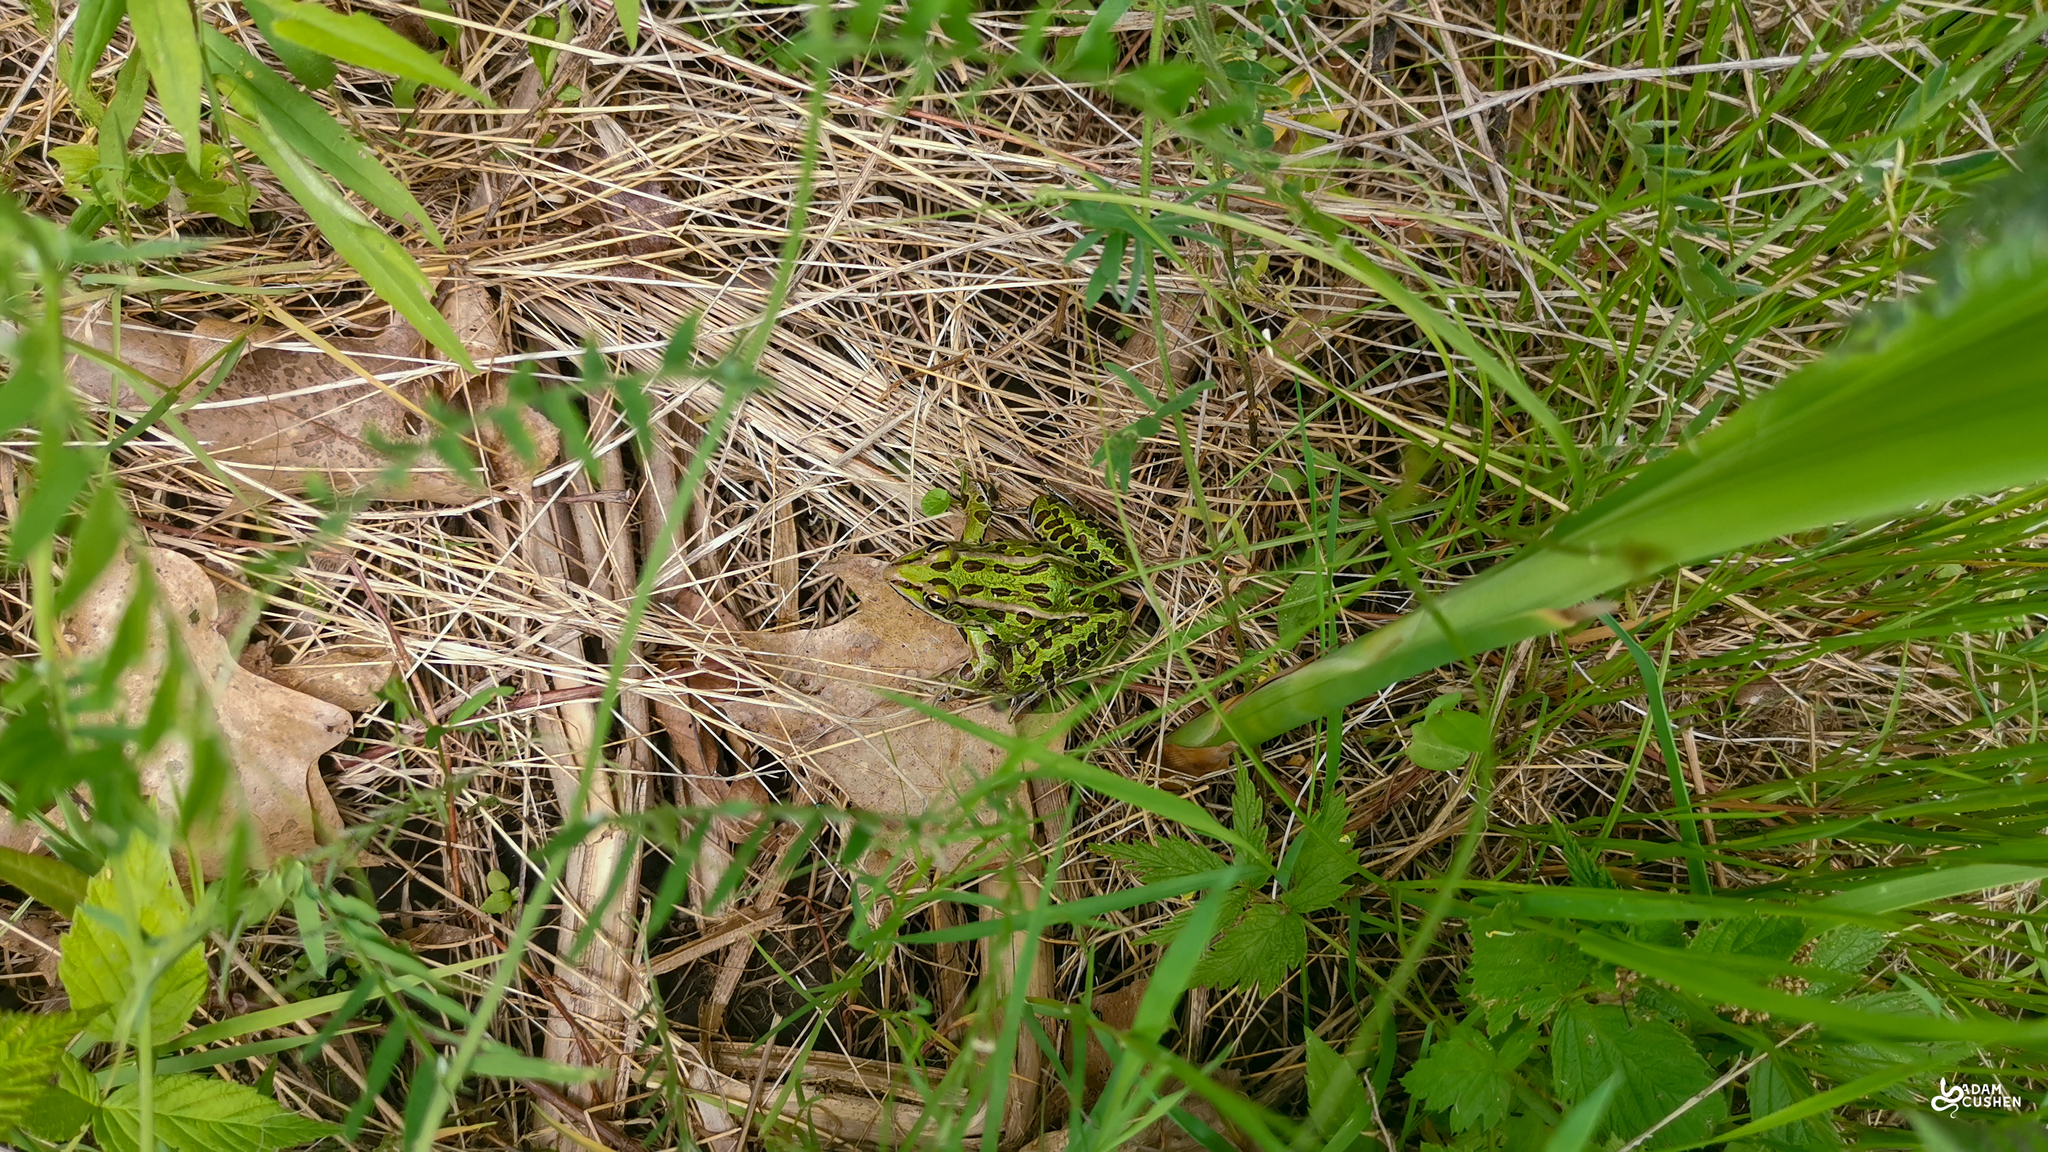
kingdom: Animalia
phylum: Chordata
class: Amphibia
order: Anura
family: Ranidae
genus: Lithobates
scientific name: Lithobates pipiens
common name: Northern leopard frog
